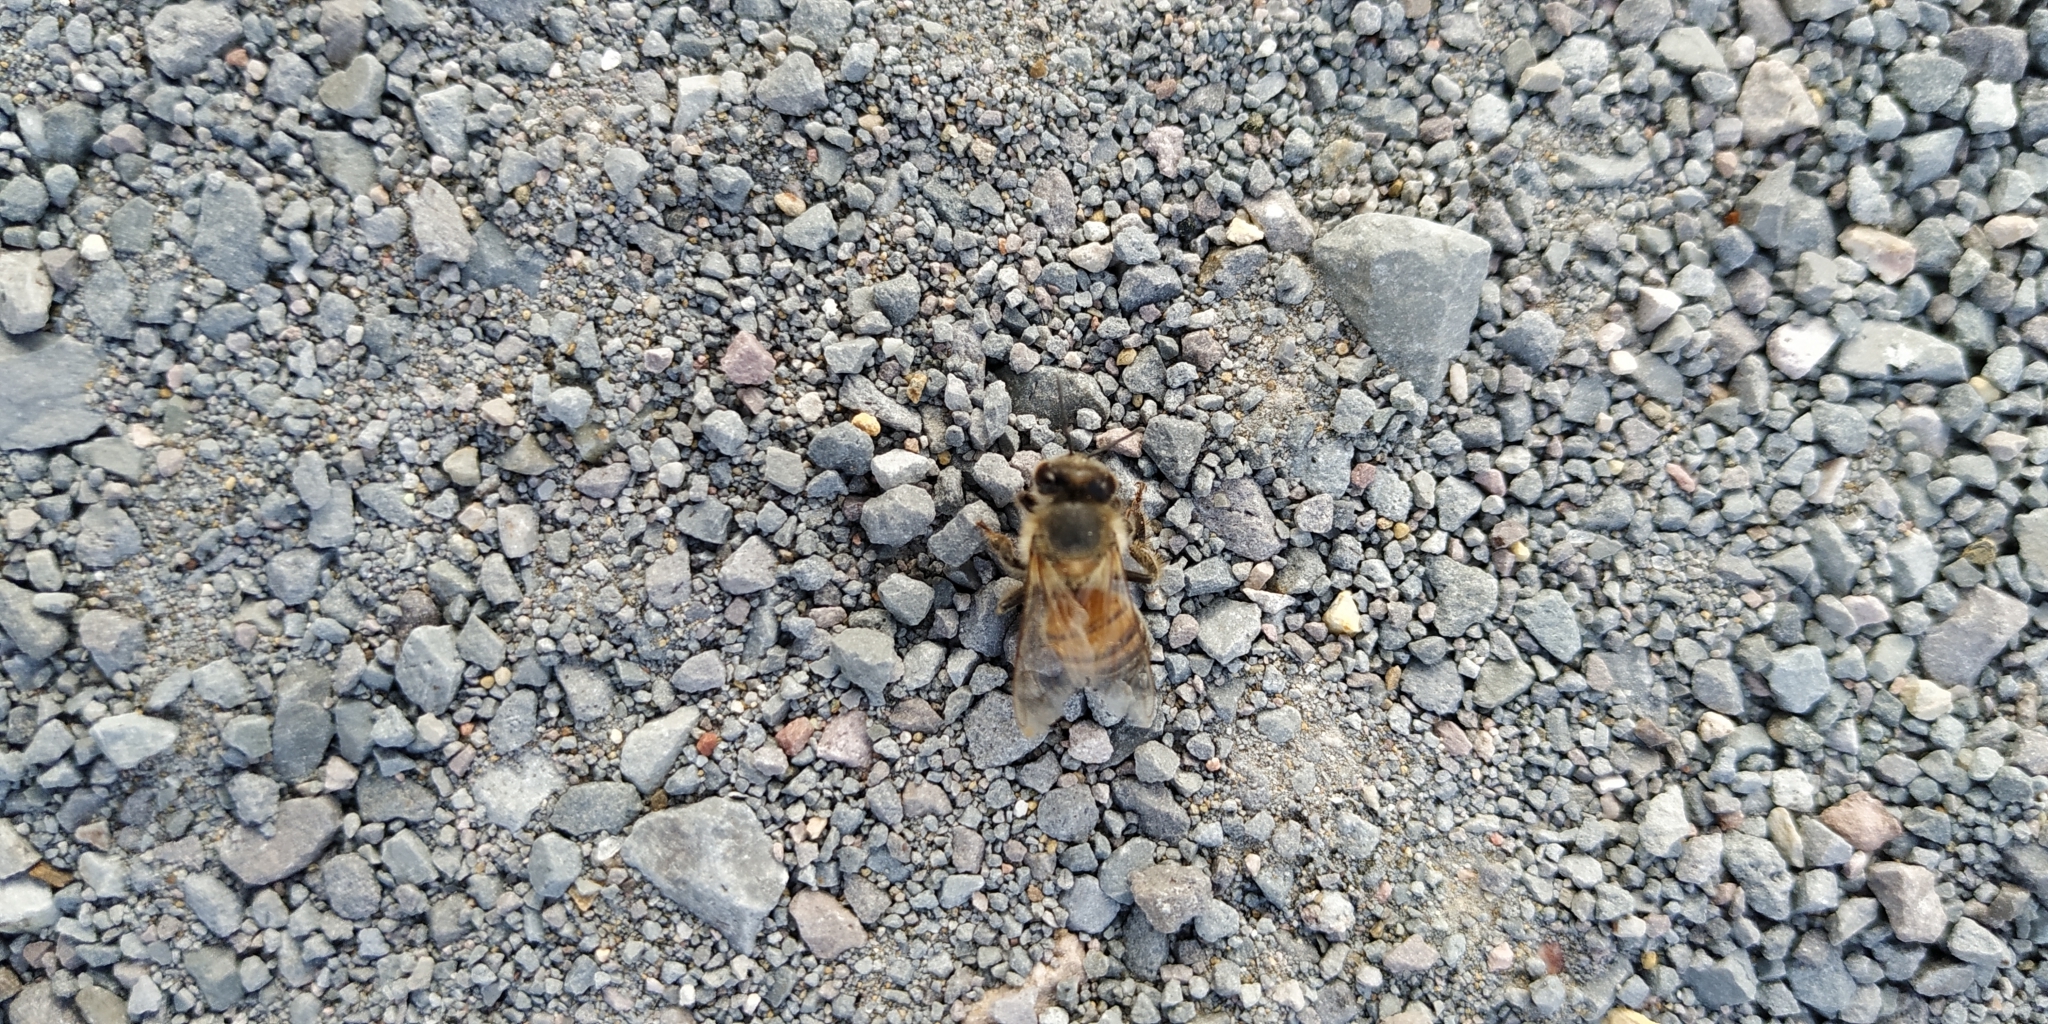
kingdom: Animalia
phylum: Arthropoda
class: Insecta
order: Hymenoptera
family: Apidae
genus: Apis
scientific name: Apis mellifera
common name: Honey bee
